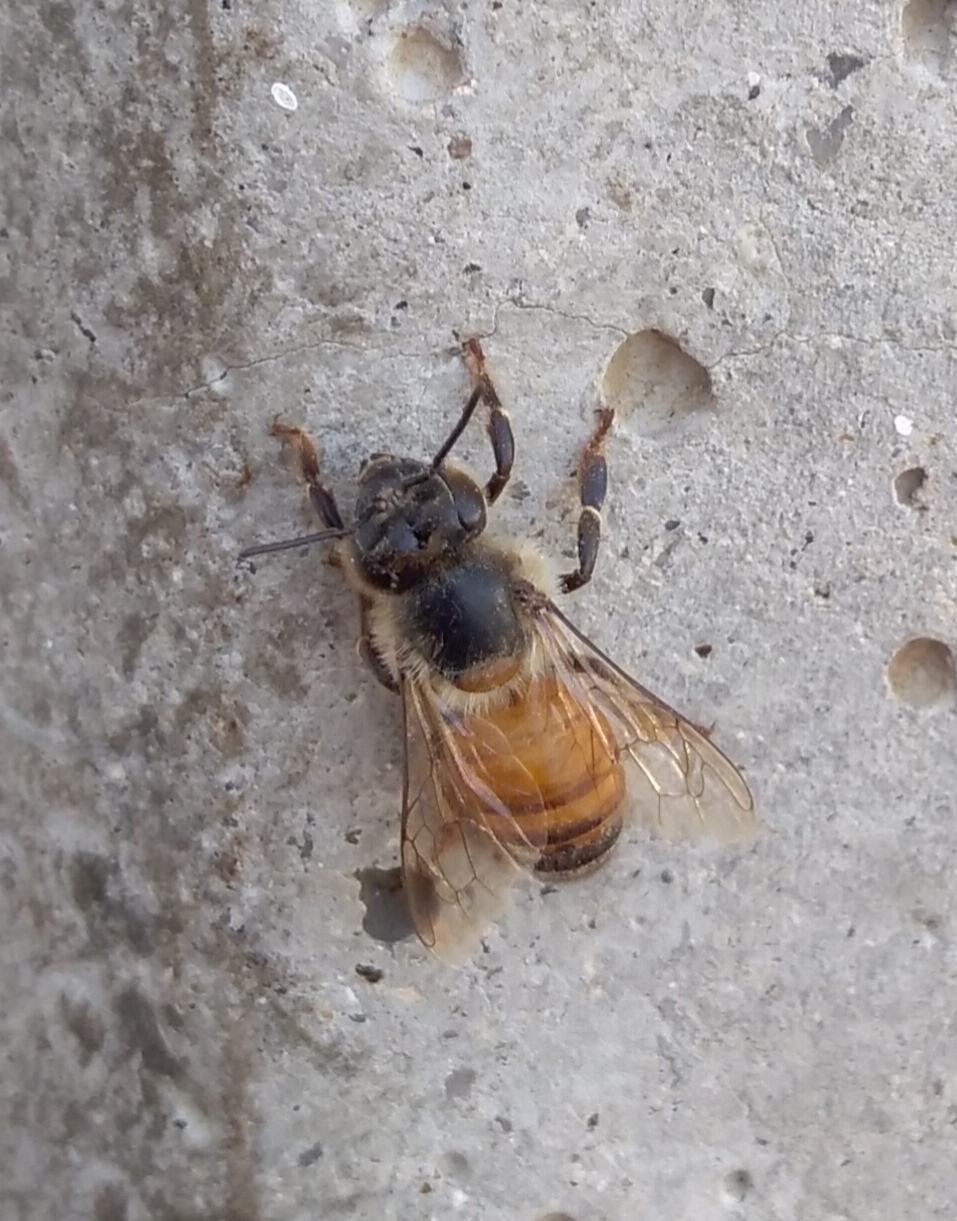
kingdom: Animalia
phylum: Arthropoda
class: Insecta
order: Hymenoptera
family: Apidae
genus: Apis
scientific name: Apis mellifera
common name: Honey bee
